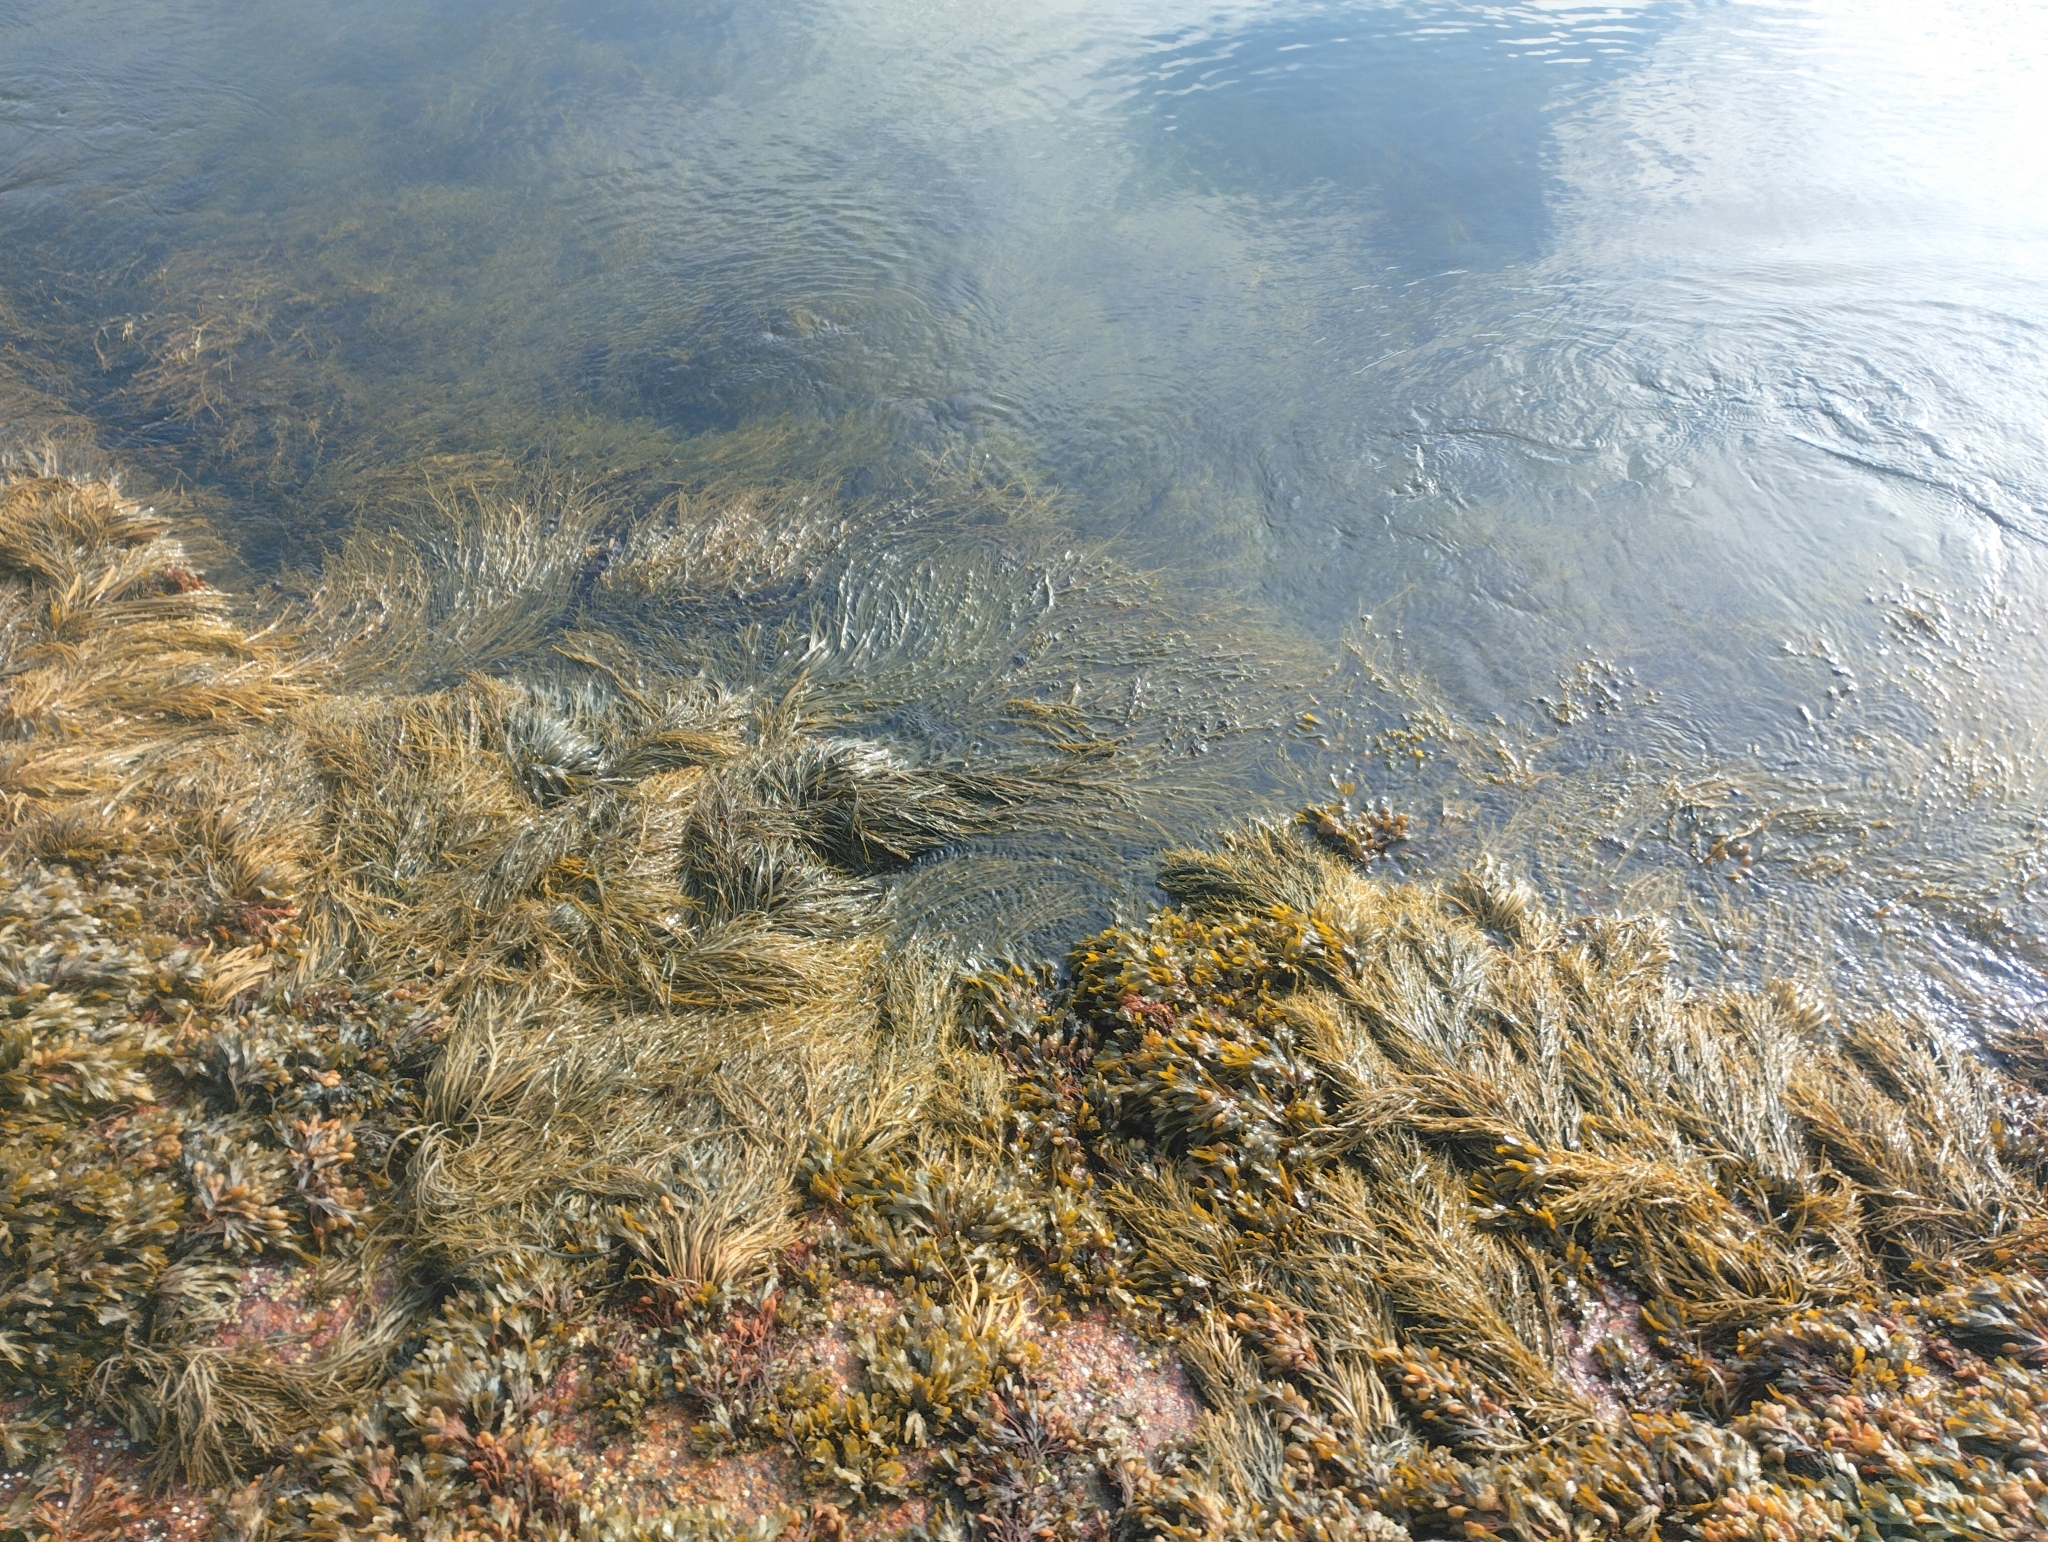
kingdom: Chromista
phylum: Ochrophyta
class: Phaeophyceae
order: Fucales
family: Fucaceae
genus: Ascophyllum
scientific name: Ascophyllum nodosum
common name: Knotted wrack
